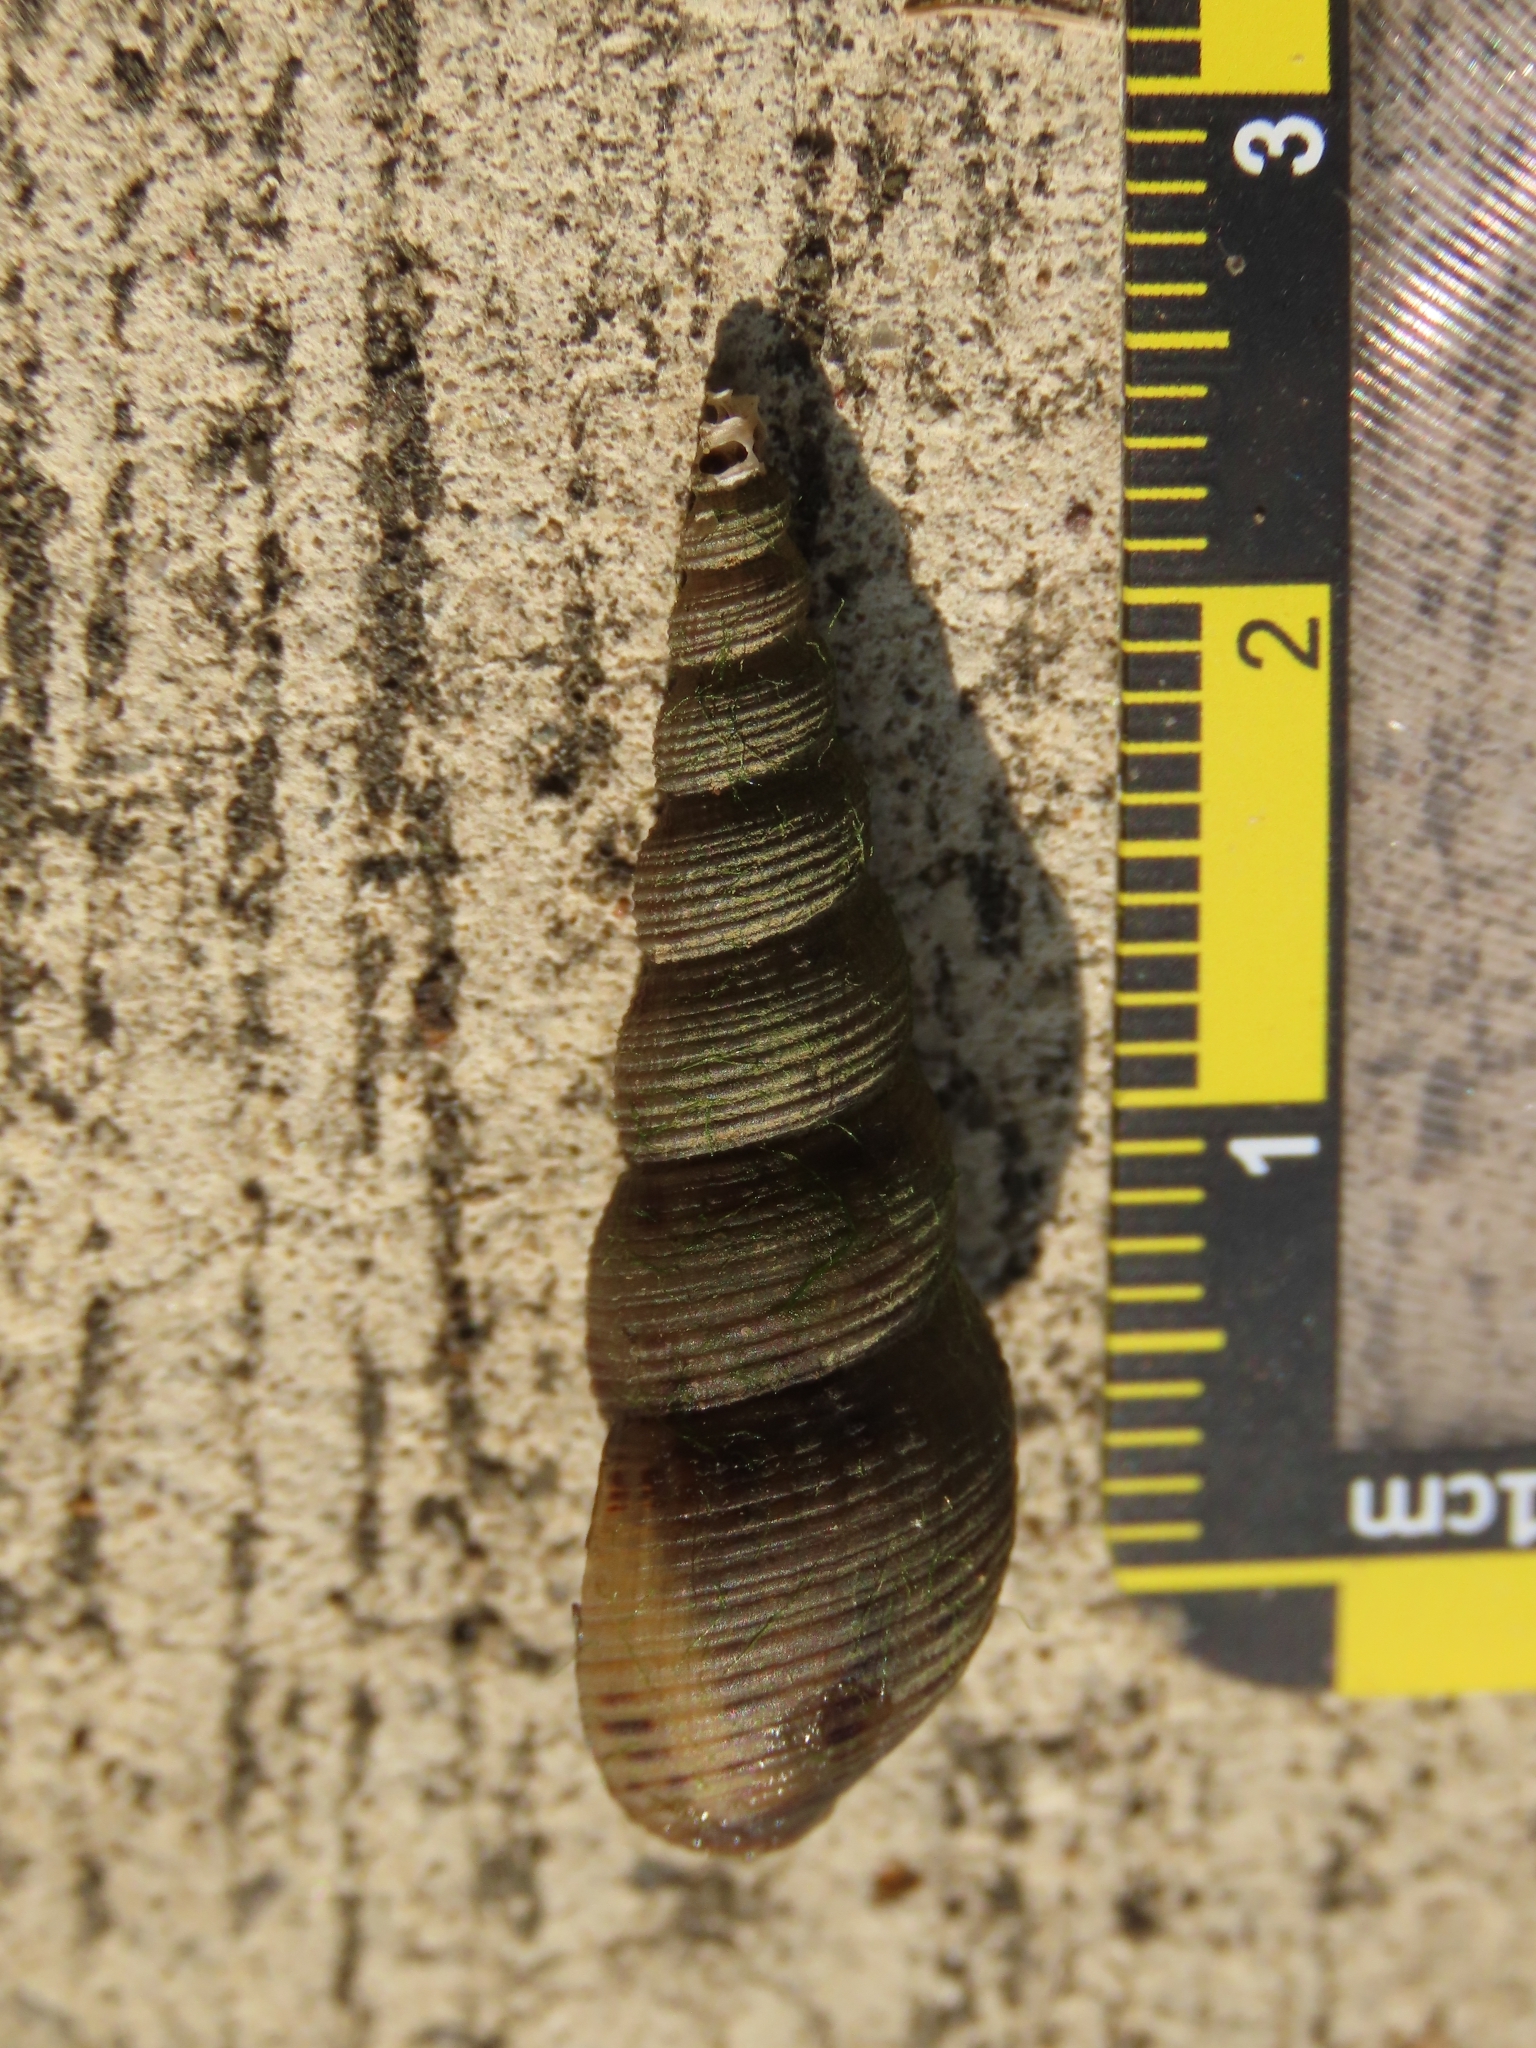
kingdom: Animalia
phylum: Mollusca
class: Gastropoda
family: Thiaridae
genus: Melanoides
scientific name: Melanoides tuberculata
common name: Red-rim melania
